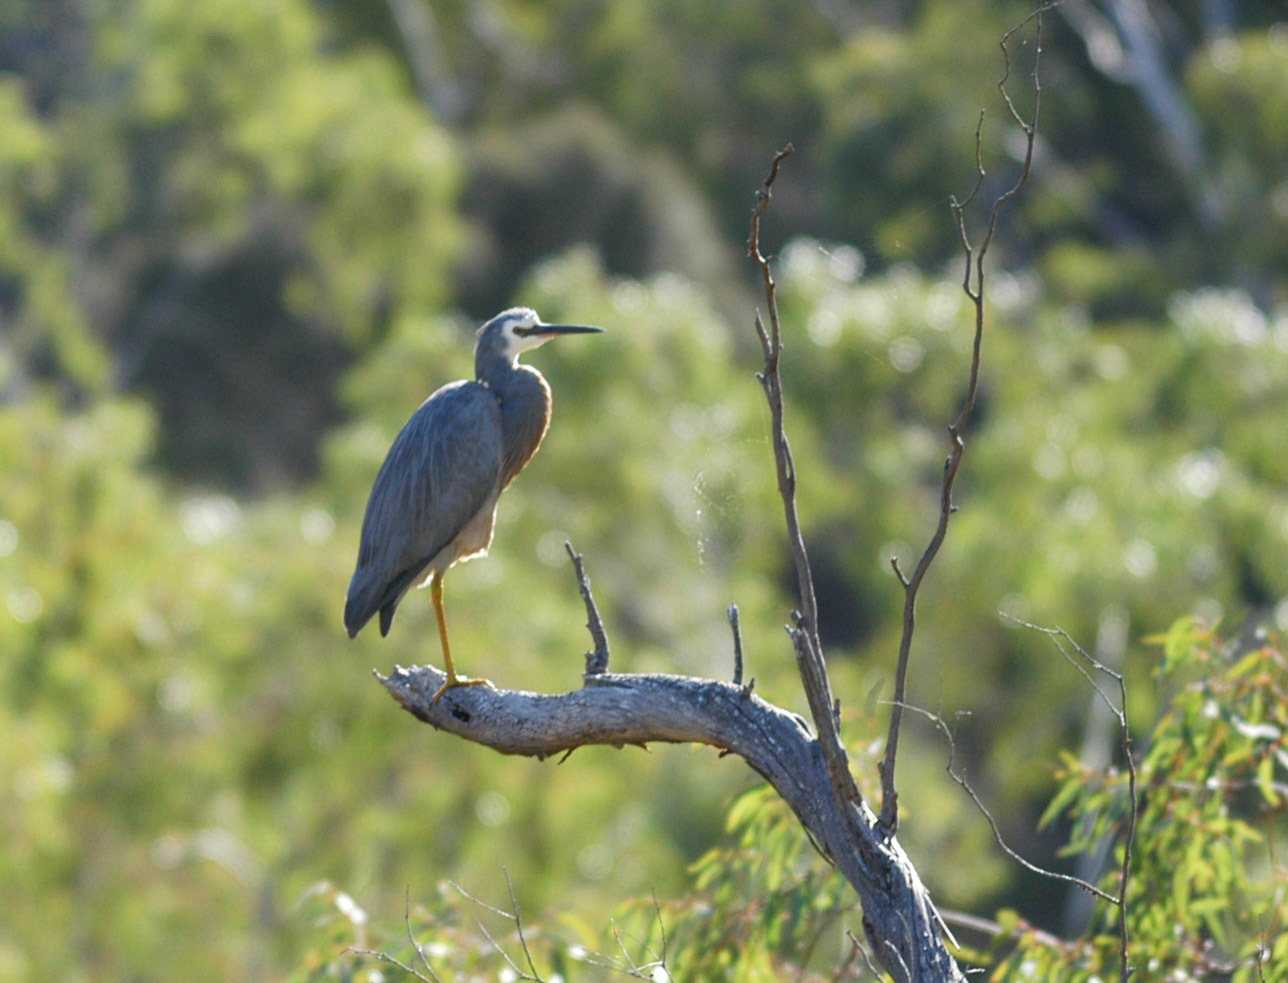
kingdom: Animalia
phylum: Chordata
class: Aves
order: Pelecaniformes
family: Ardeidae
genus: Egretta
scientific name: Egretta novaehollandiae
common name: White-faced heron
